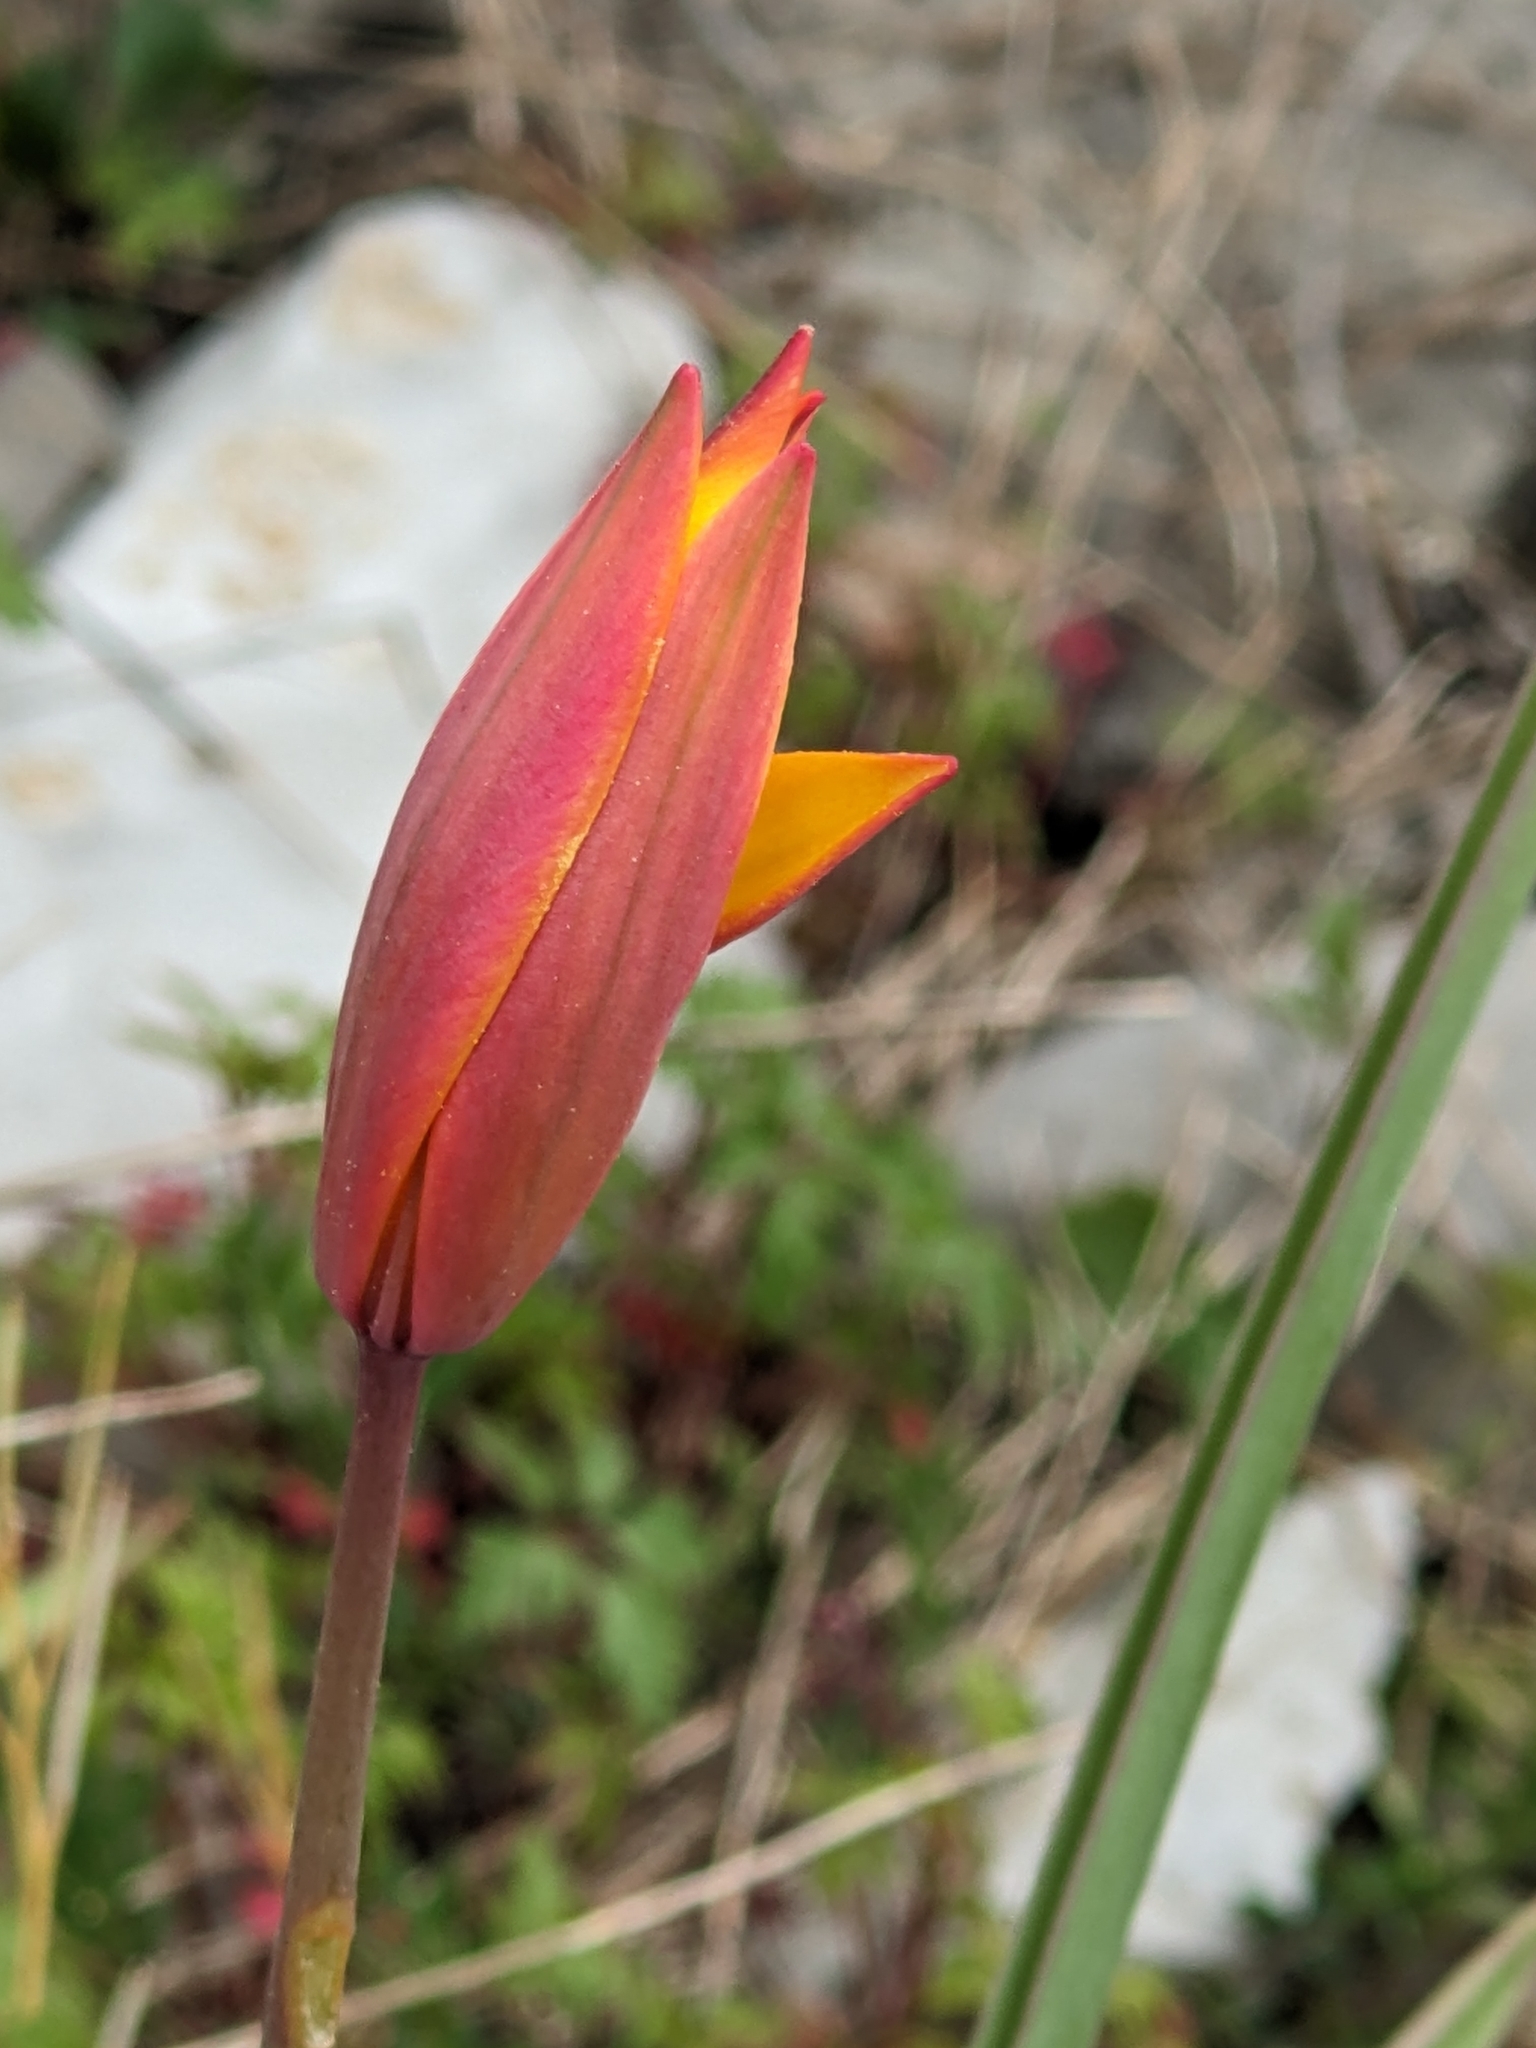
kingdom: Plantae
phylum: Tracheophyta
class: Liliopsida
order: Liliales
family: Liliaceae
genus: Tulipa
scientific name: Tulipa sylvestris
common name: Wild tulip
